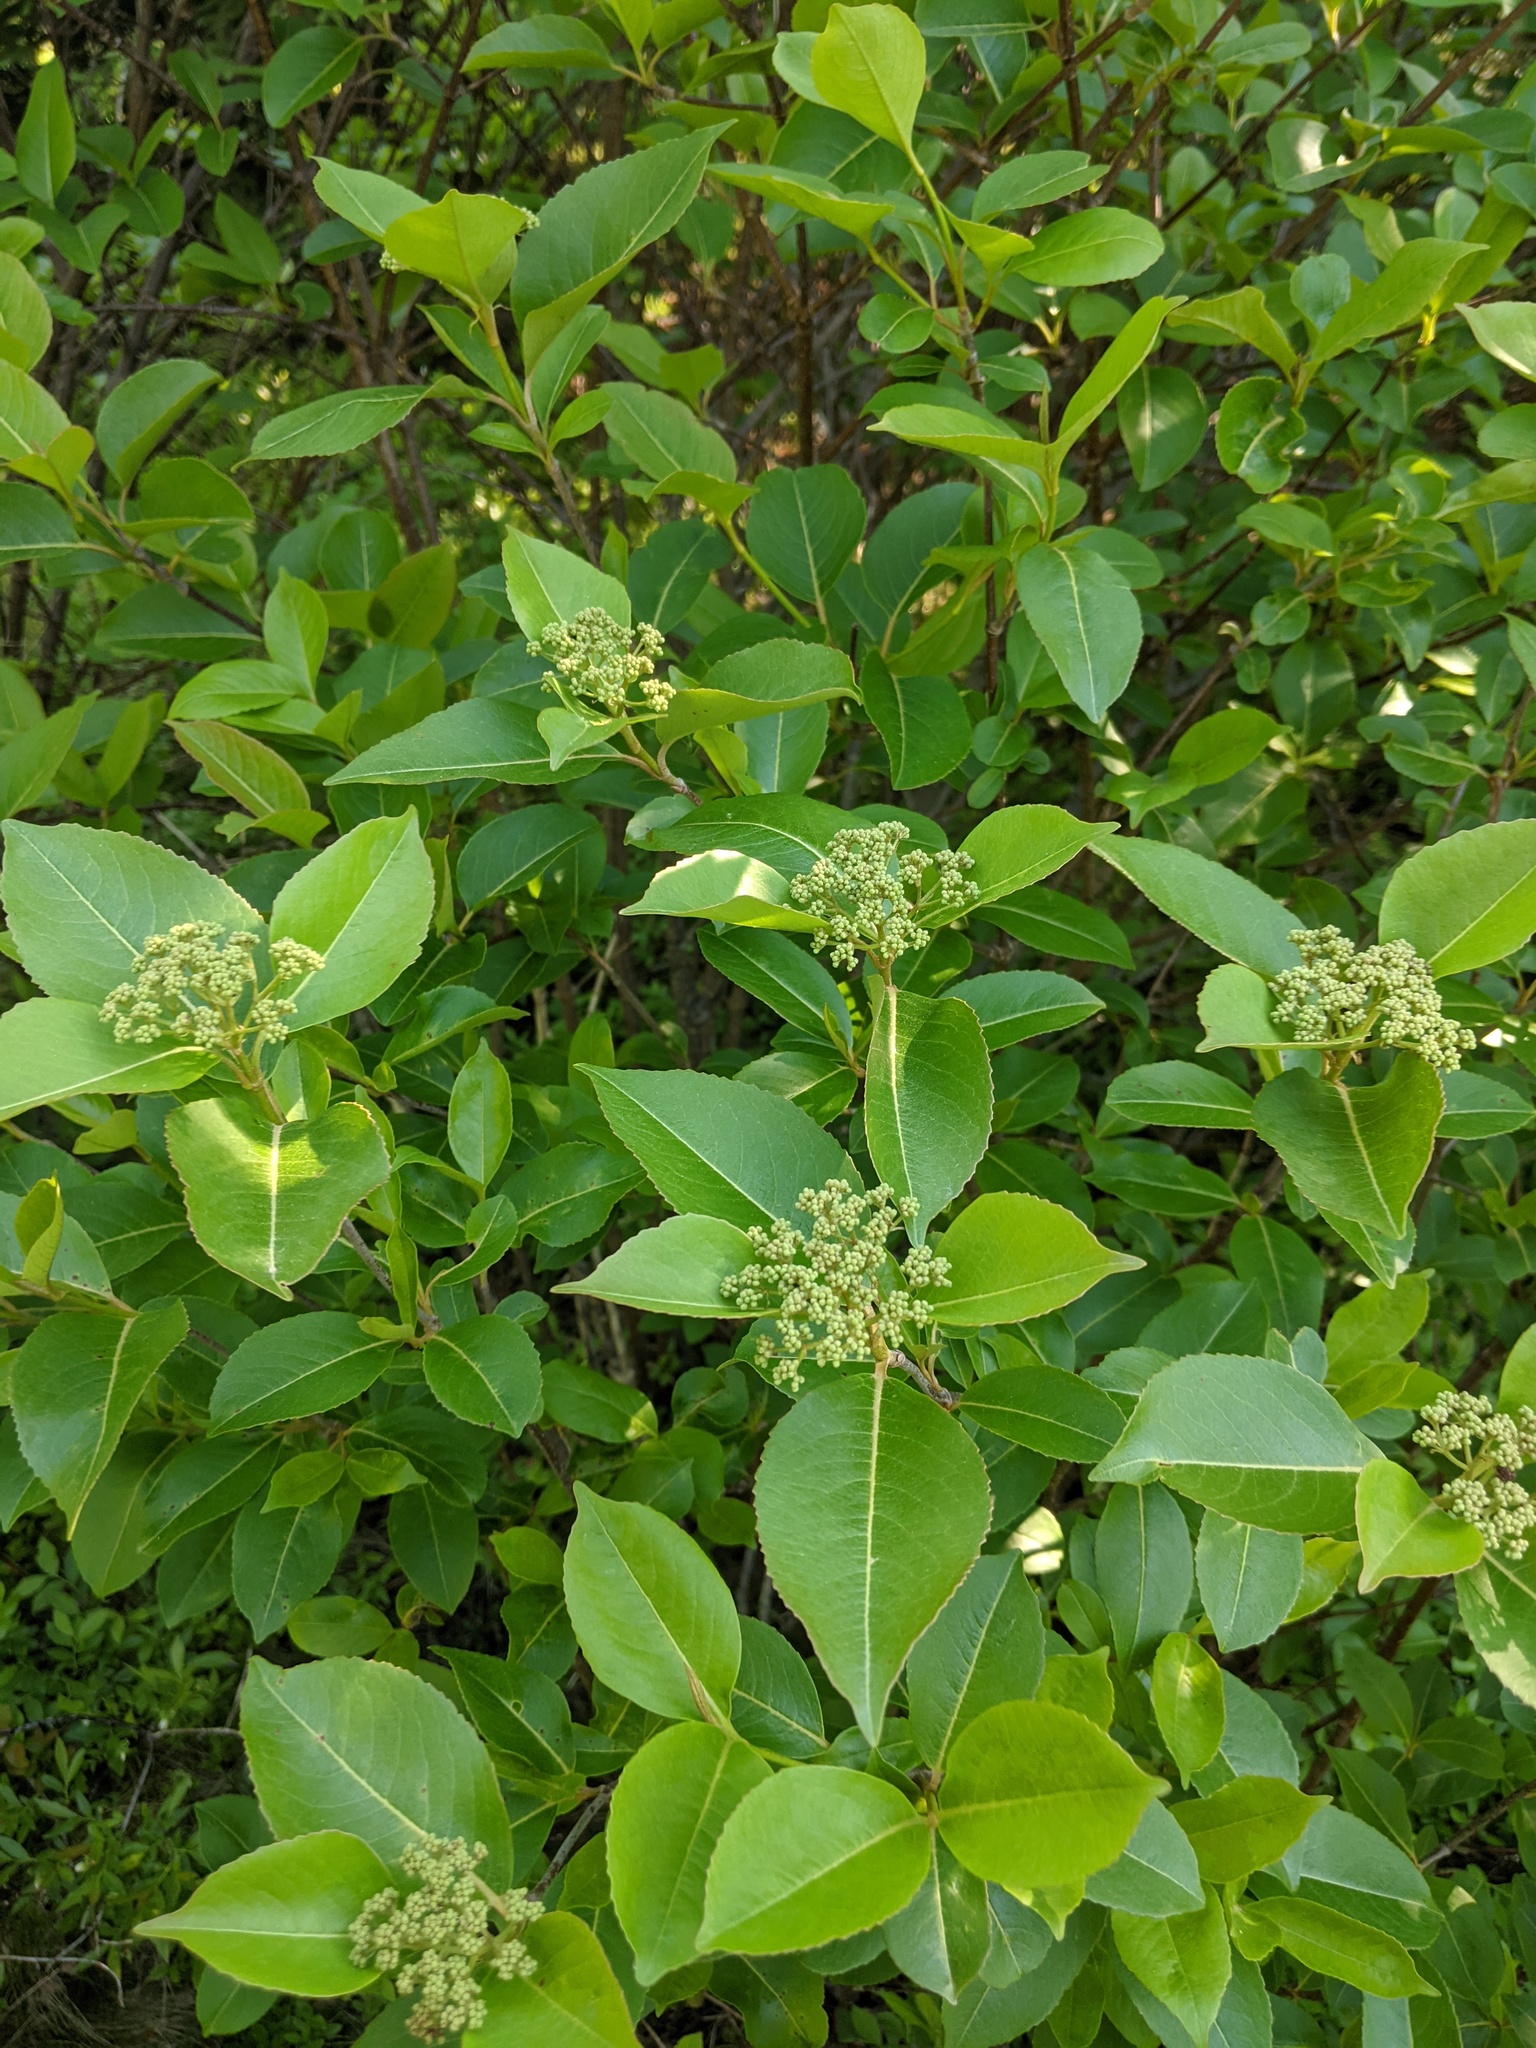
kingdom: Plantae
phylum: Tracheophyta
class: Magnoliopsida
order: Dipsacales
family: Viburnaceae
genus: Viburnum
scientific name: Viburnum cassinoides
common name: Swamp haw
